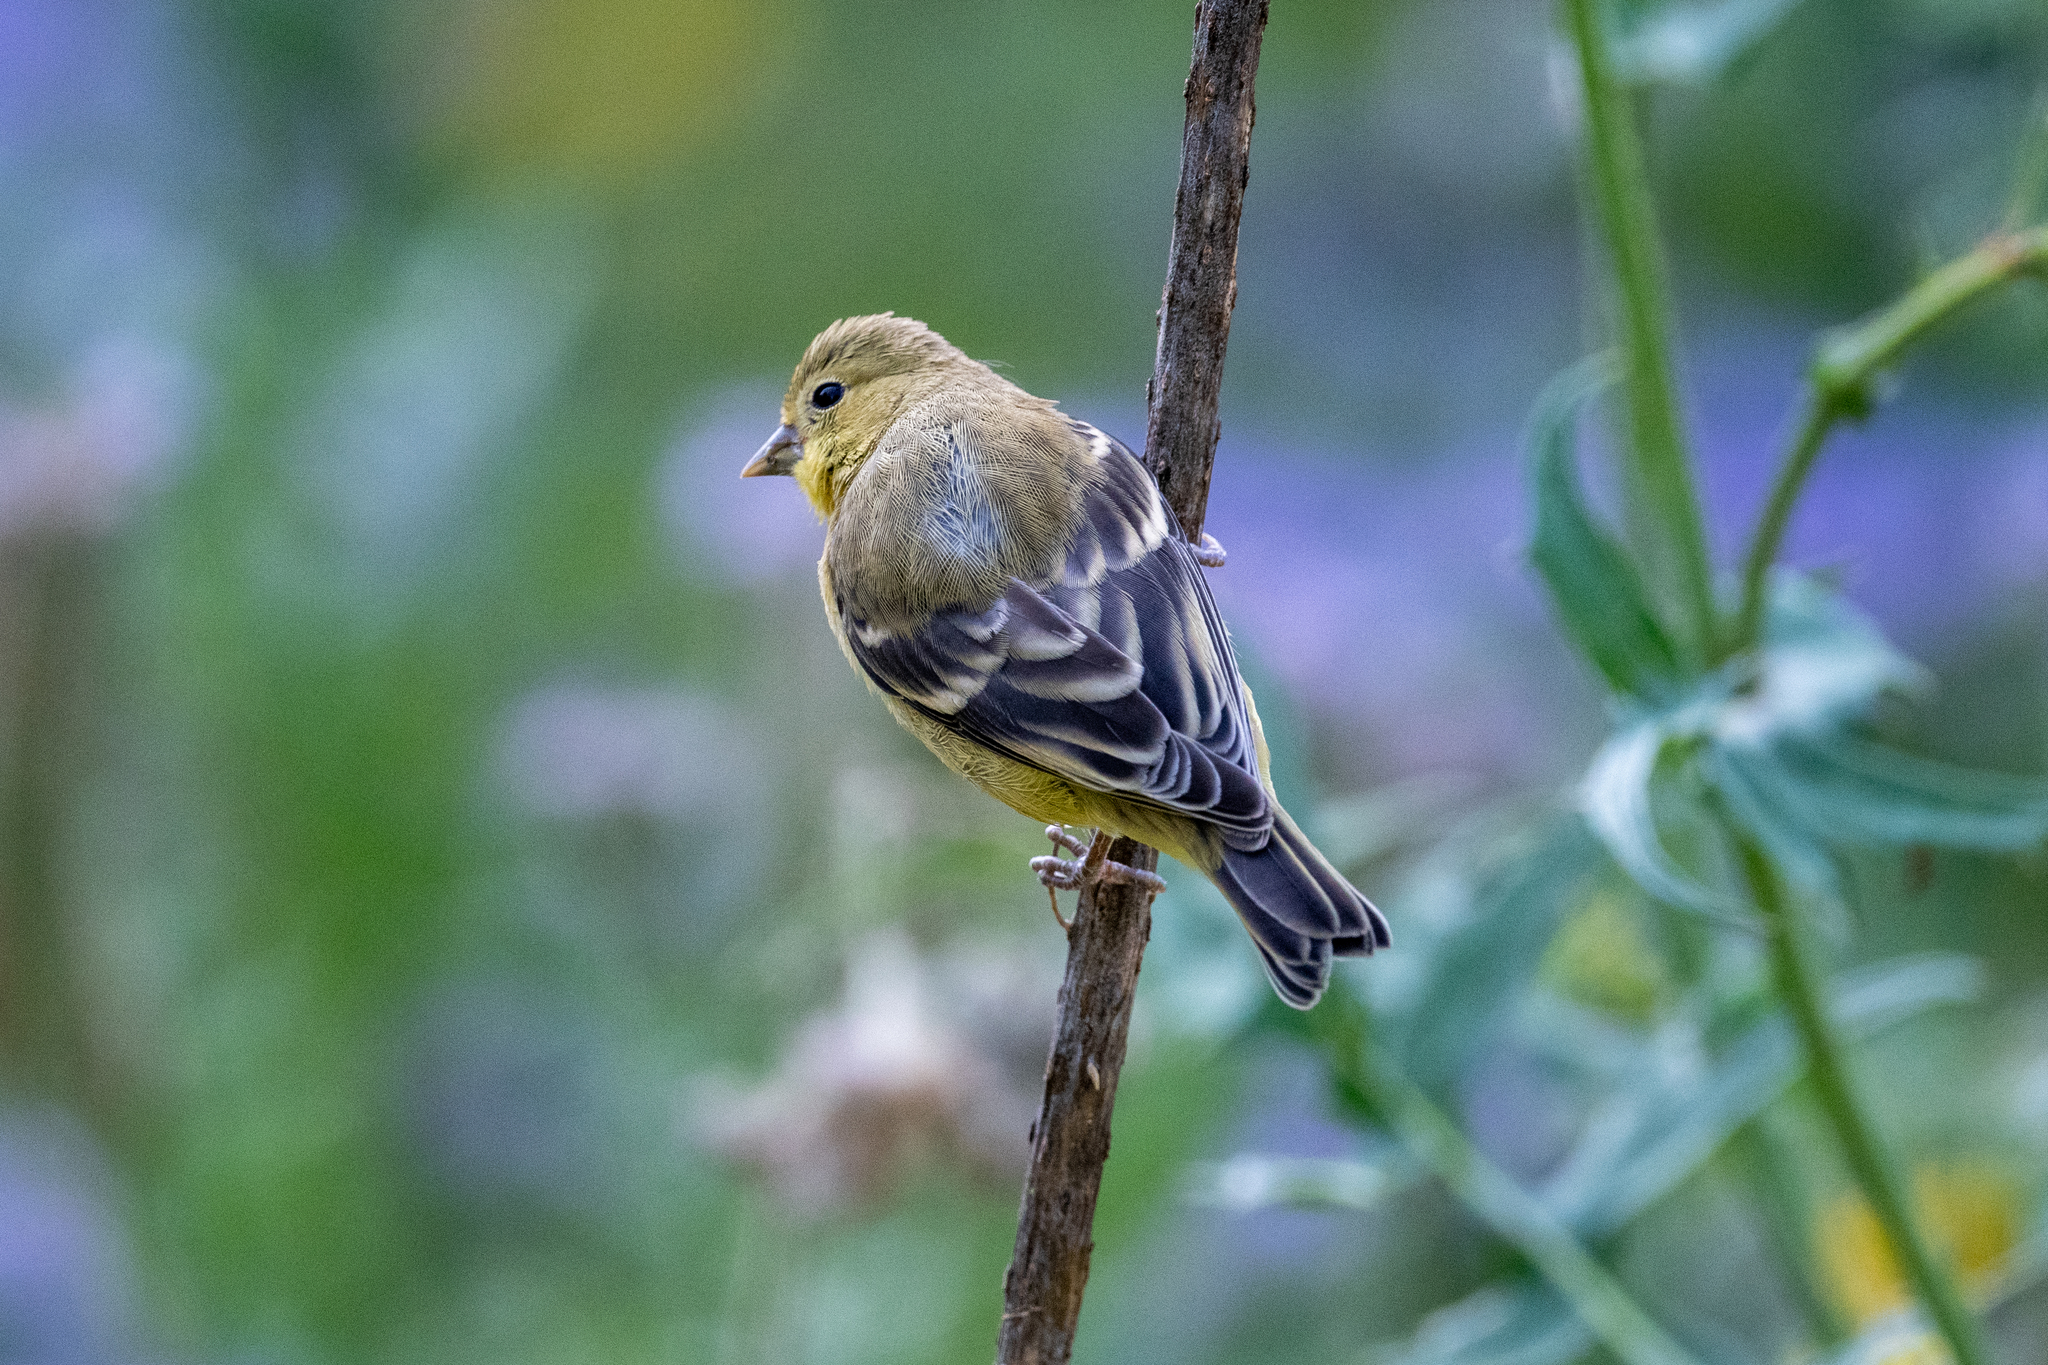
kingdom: Animalia
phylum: Chordata
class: Aves
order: Passeriformes
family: Fringillidae
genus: Spinus
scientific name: Spinus psaltria
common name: Lesser goldfinch
